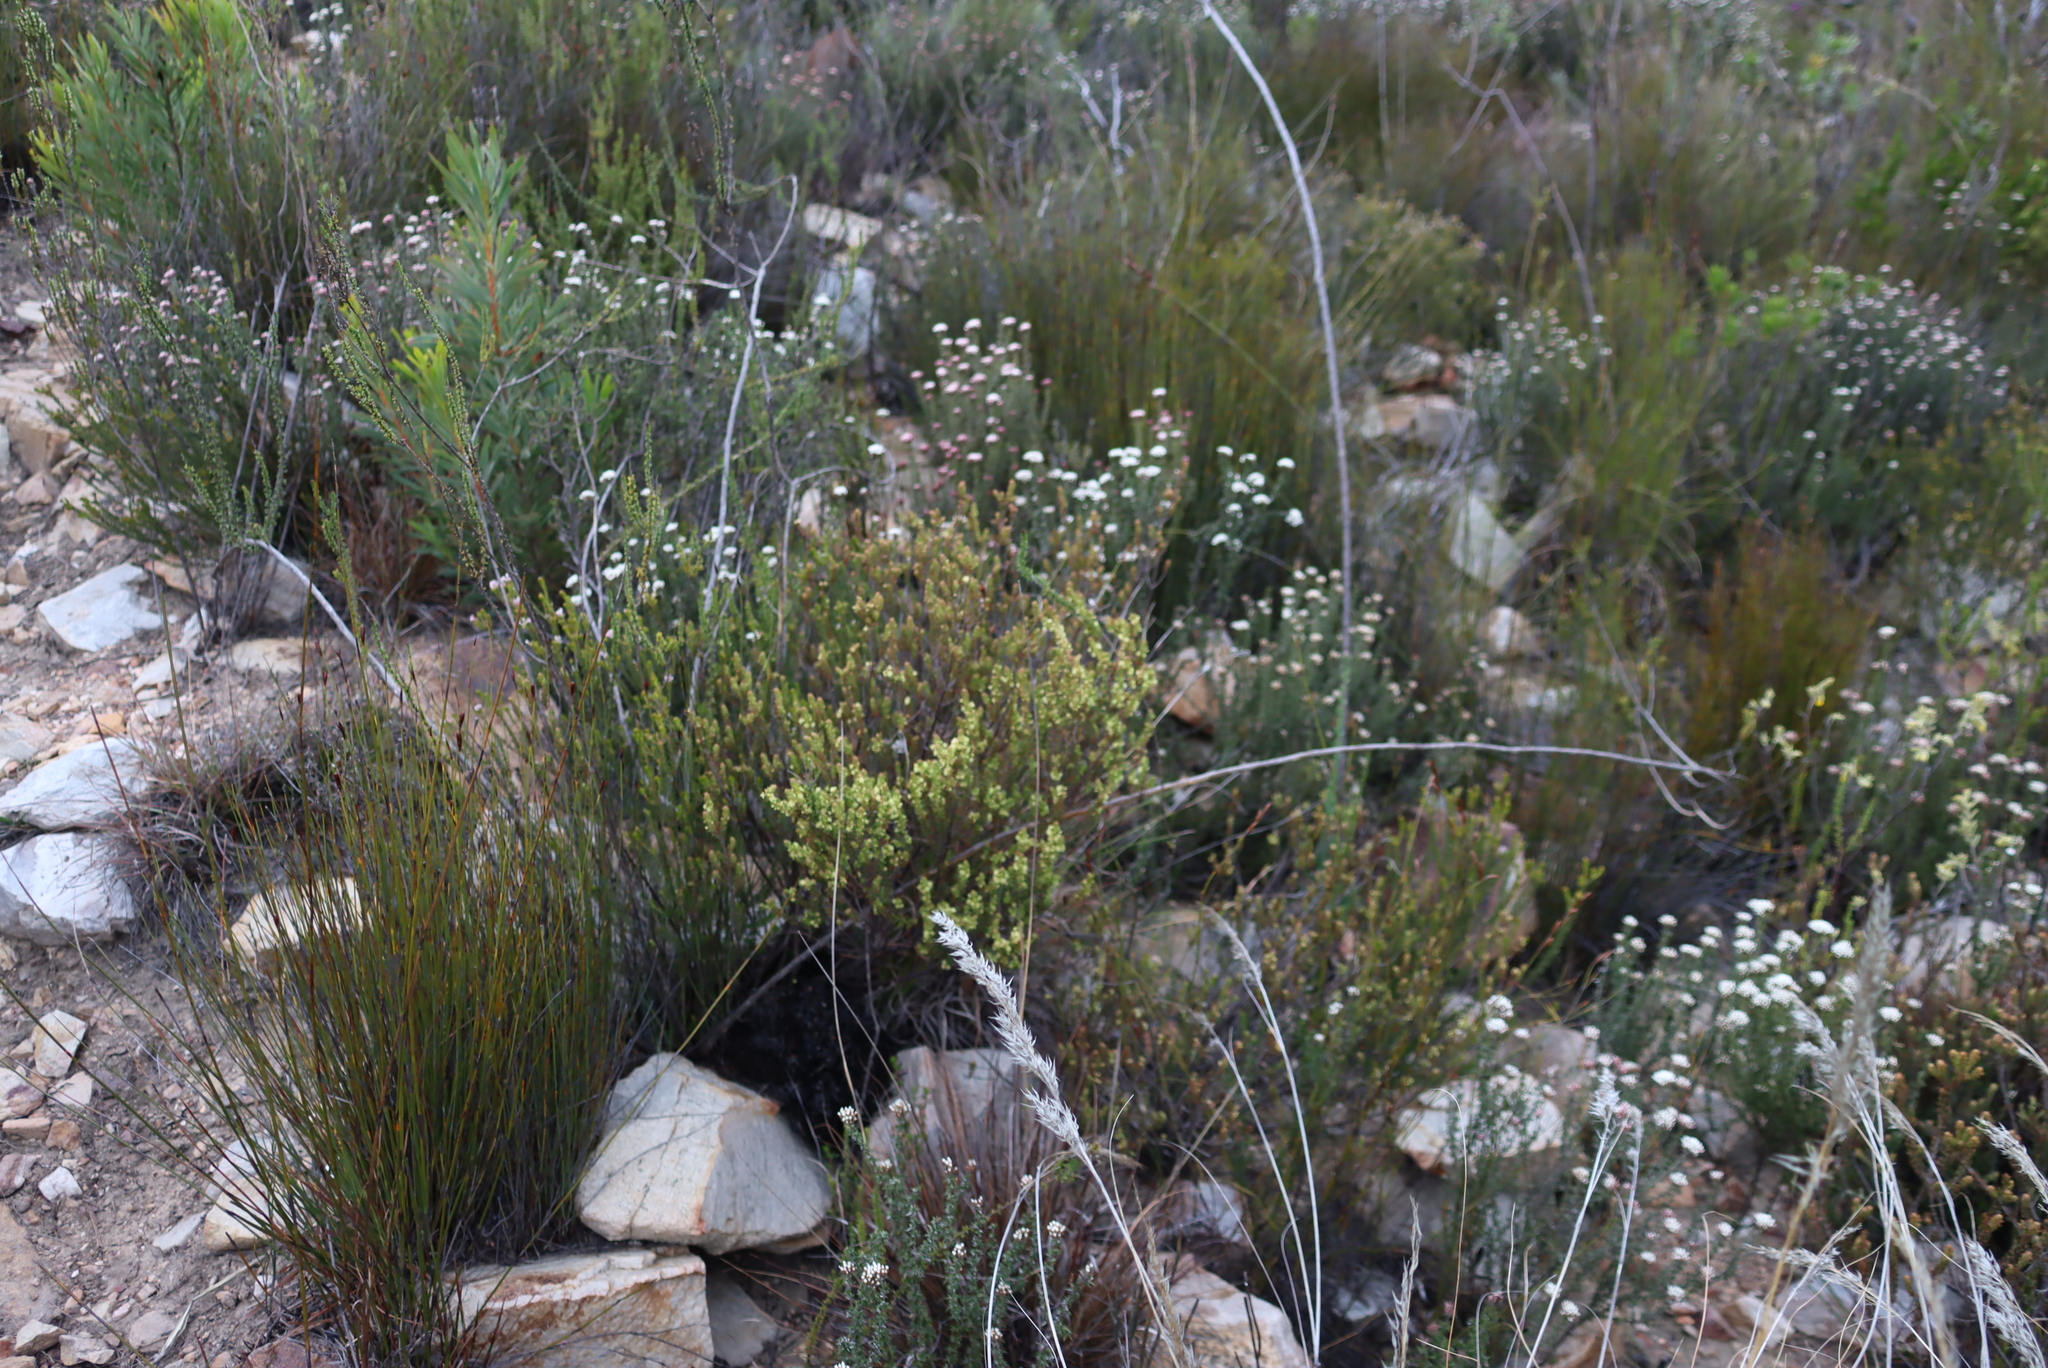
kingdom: Plantae
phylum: Tracheophyta
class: Magnoliopsida
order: Malpighiales
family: Peraceae
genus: Clutia
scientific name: Clutia alaternoides
